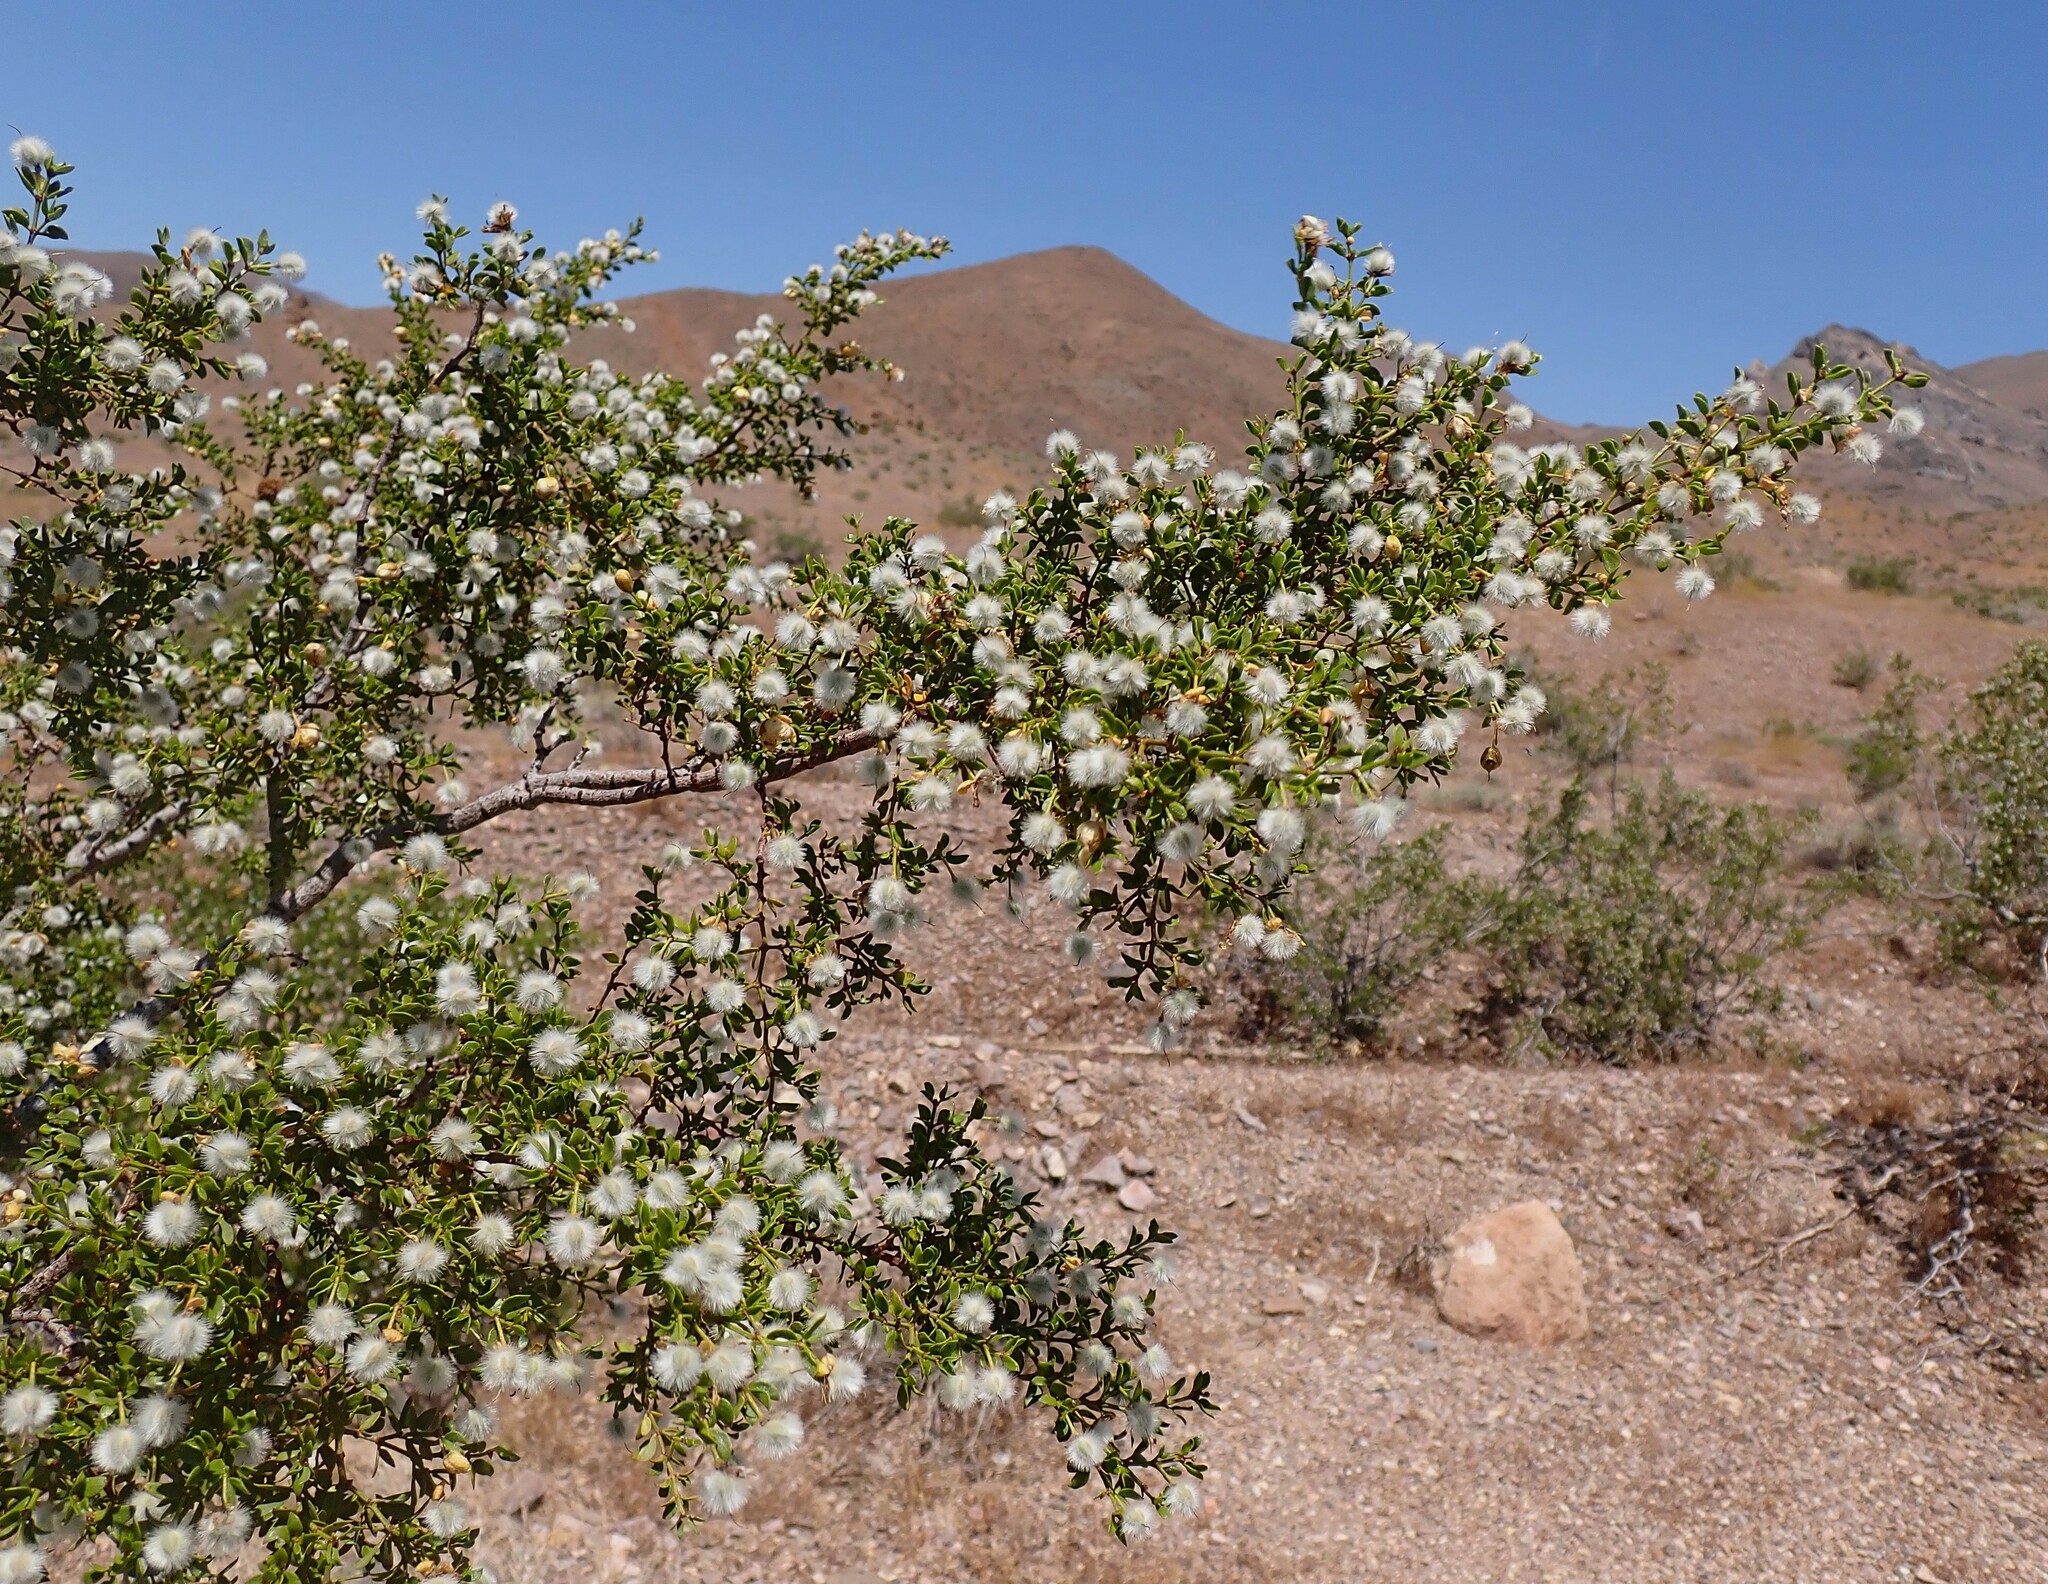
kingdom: Plantae
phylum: Tracheophyta
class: Magnoliopsida
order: Zygophyllales
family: Zygophyllaceae
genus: Larrea
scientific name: Larrea tridentata
